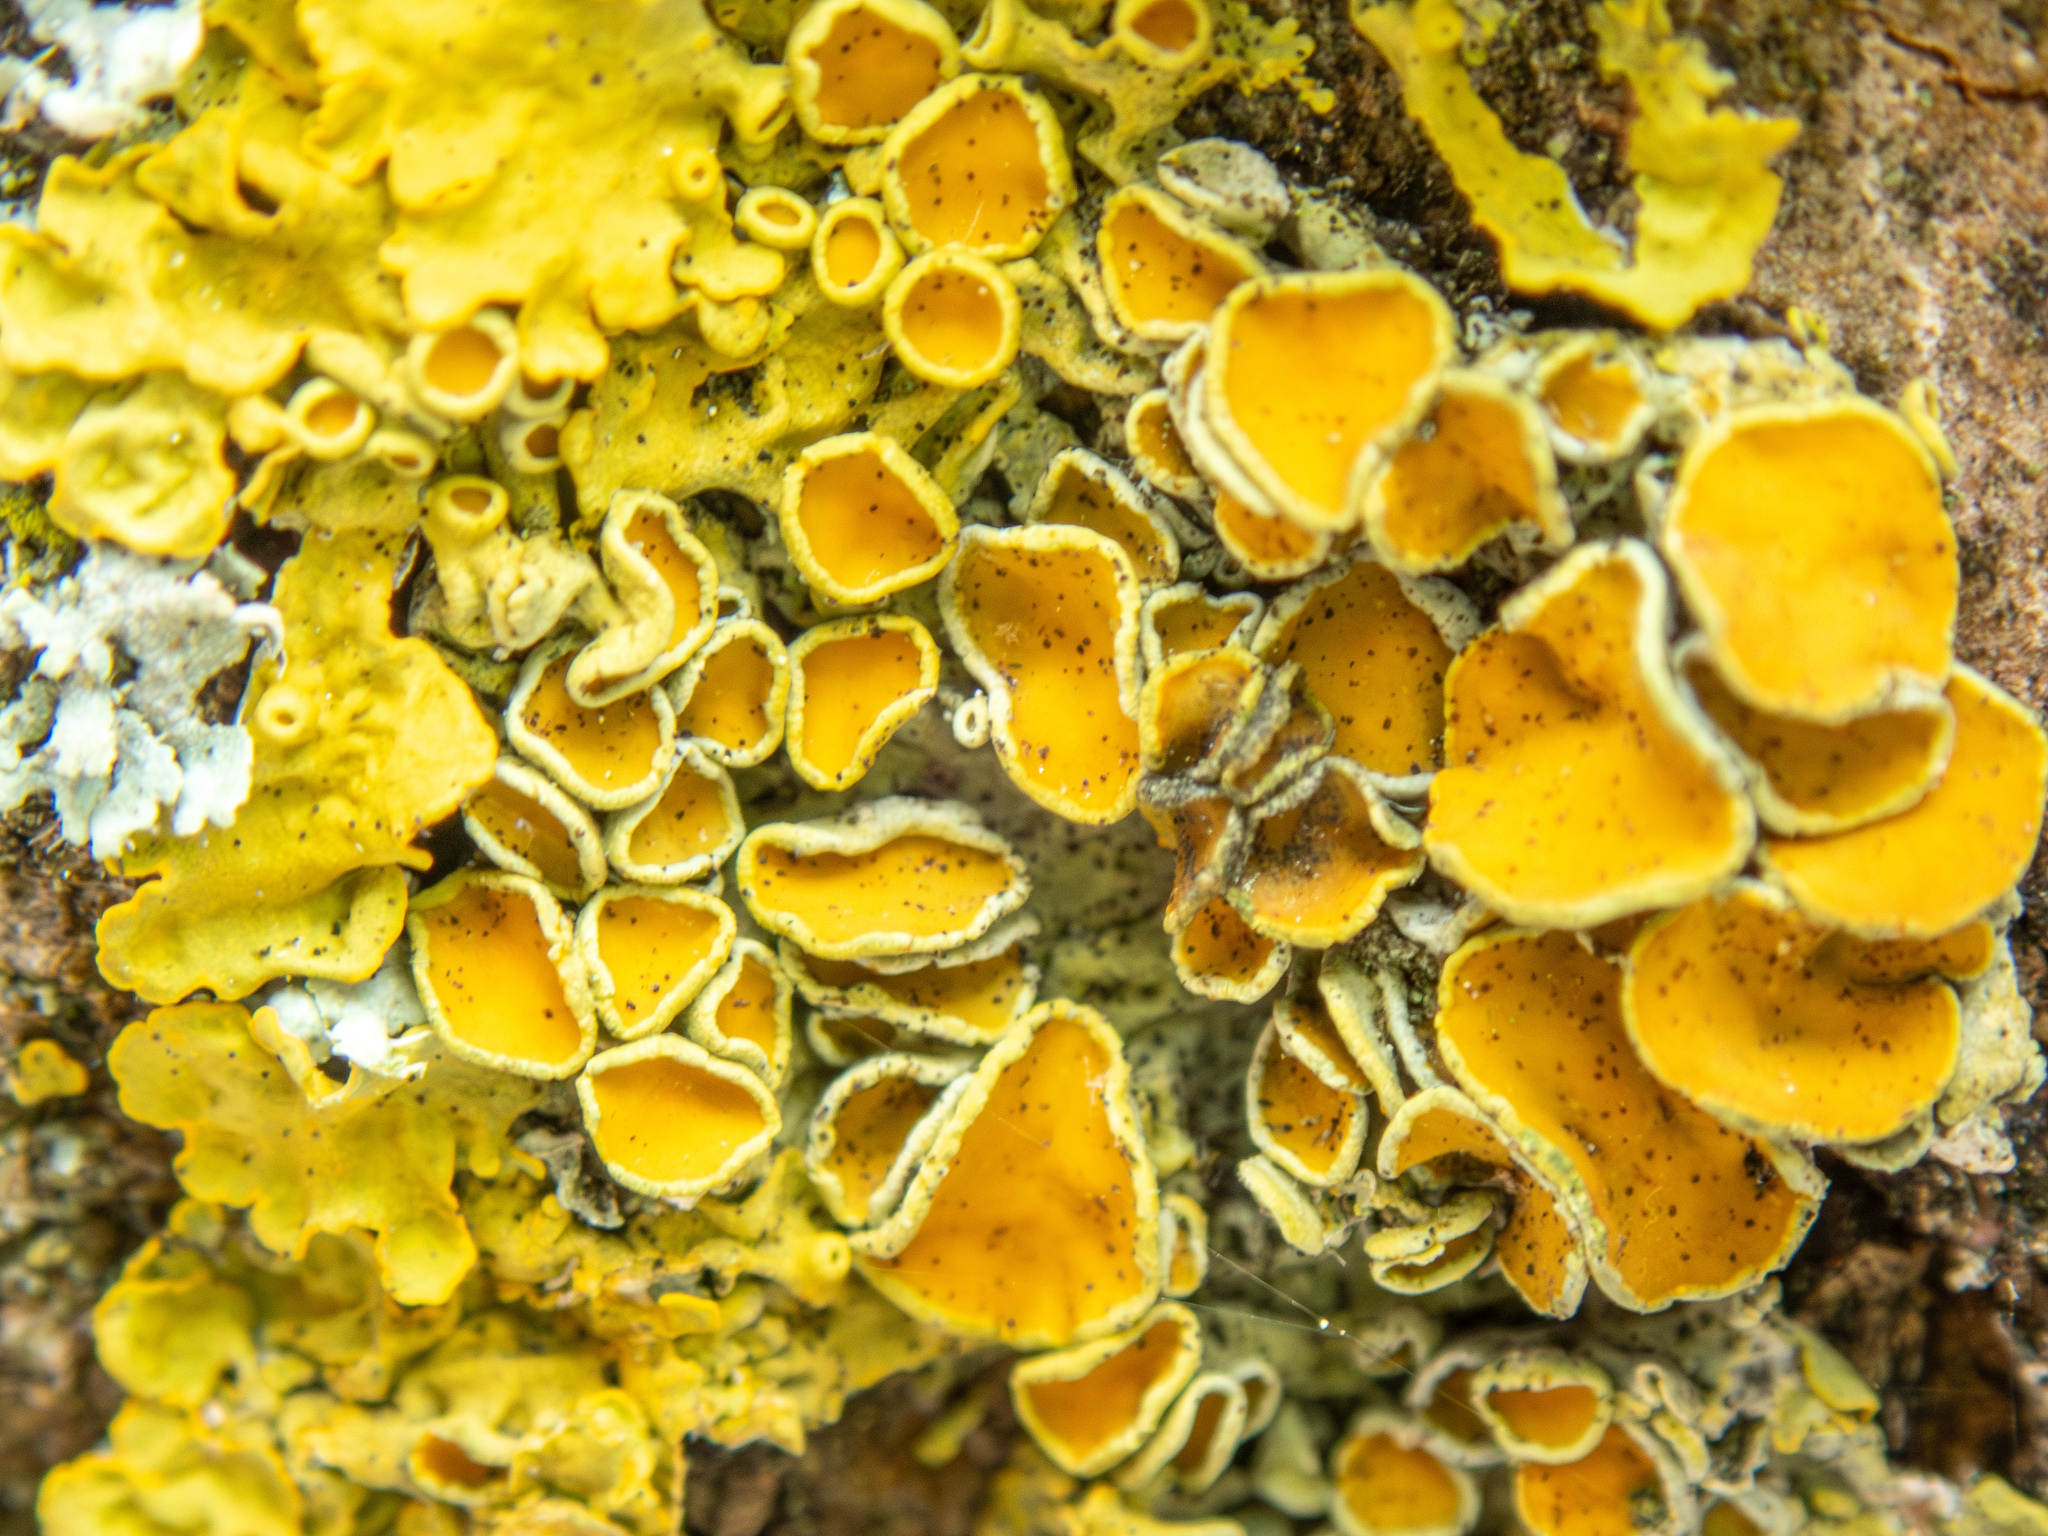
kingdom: Fungi
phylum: Ascomycota
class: Lecanoromycetes
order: Teloschistales
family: Teloschistaceae
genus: Xanthoria
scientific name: Xanthoria parietina
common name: Common orange lichen
